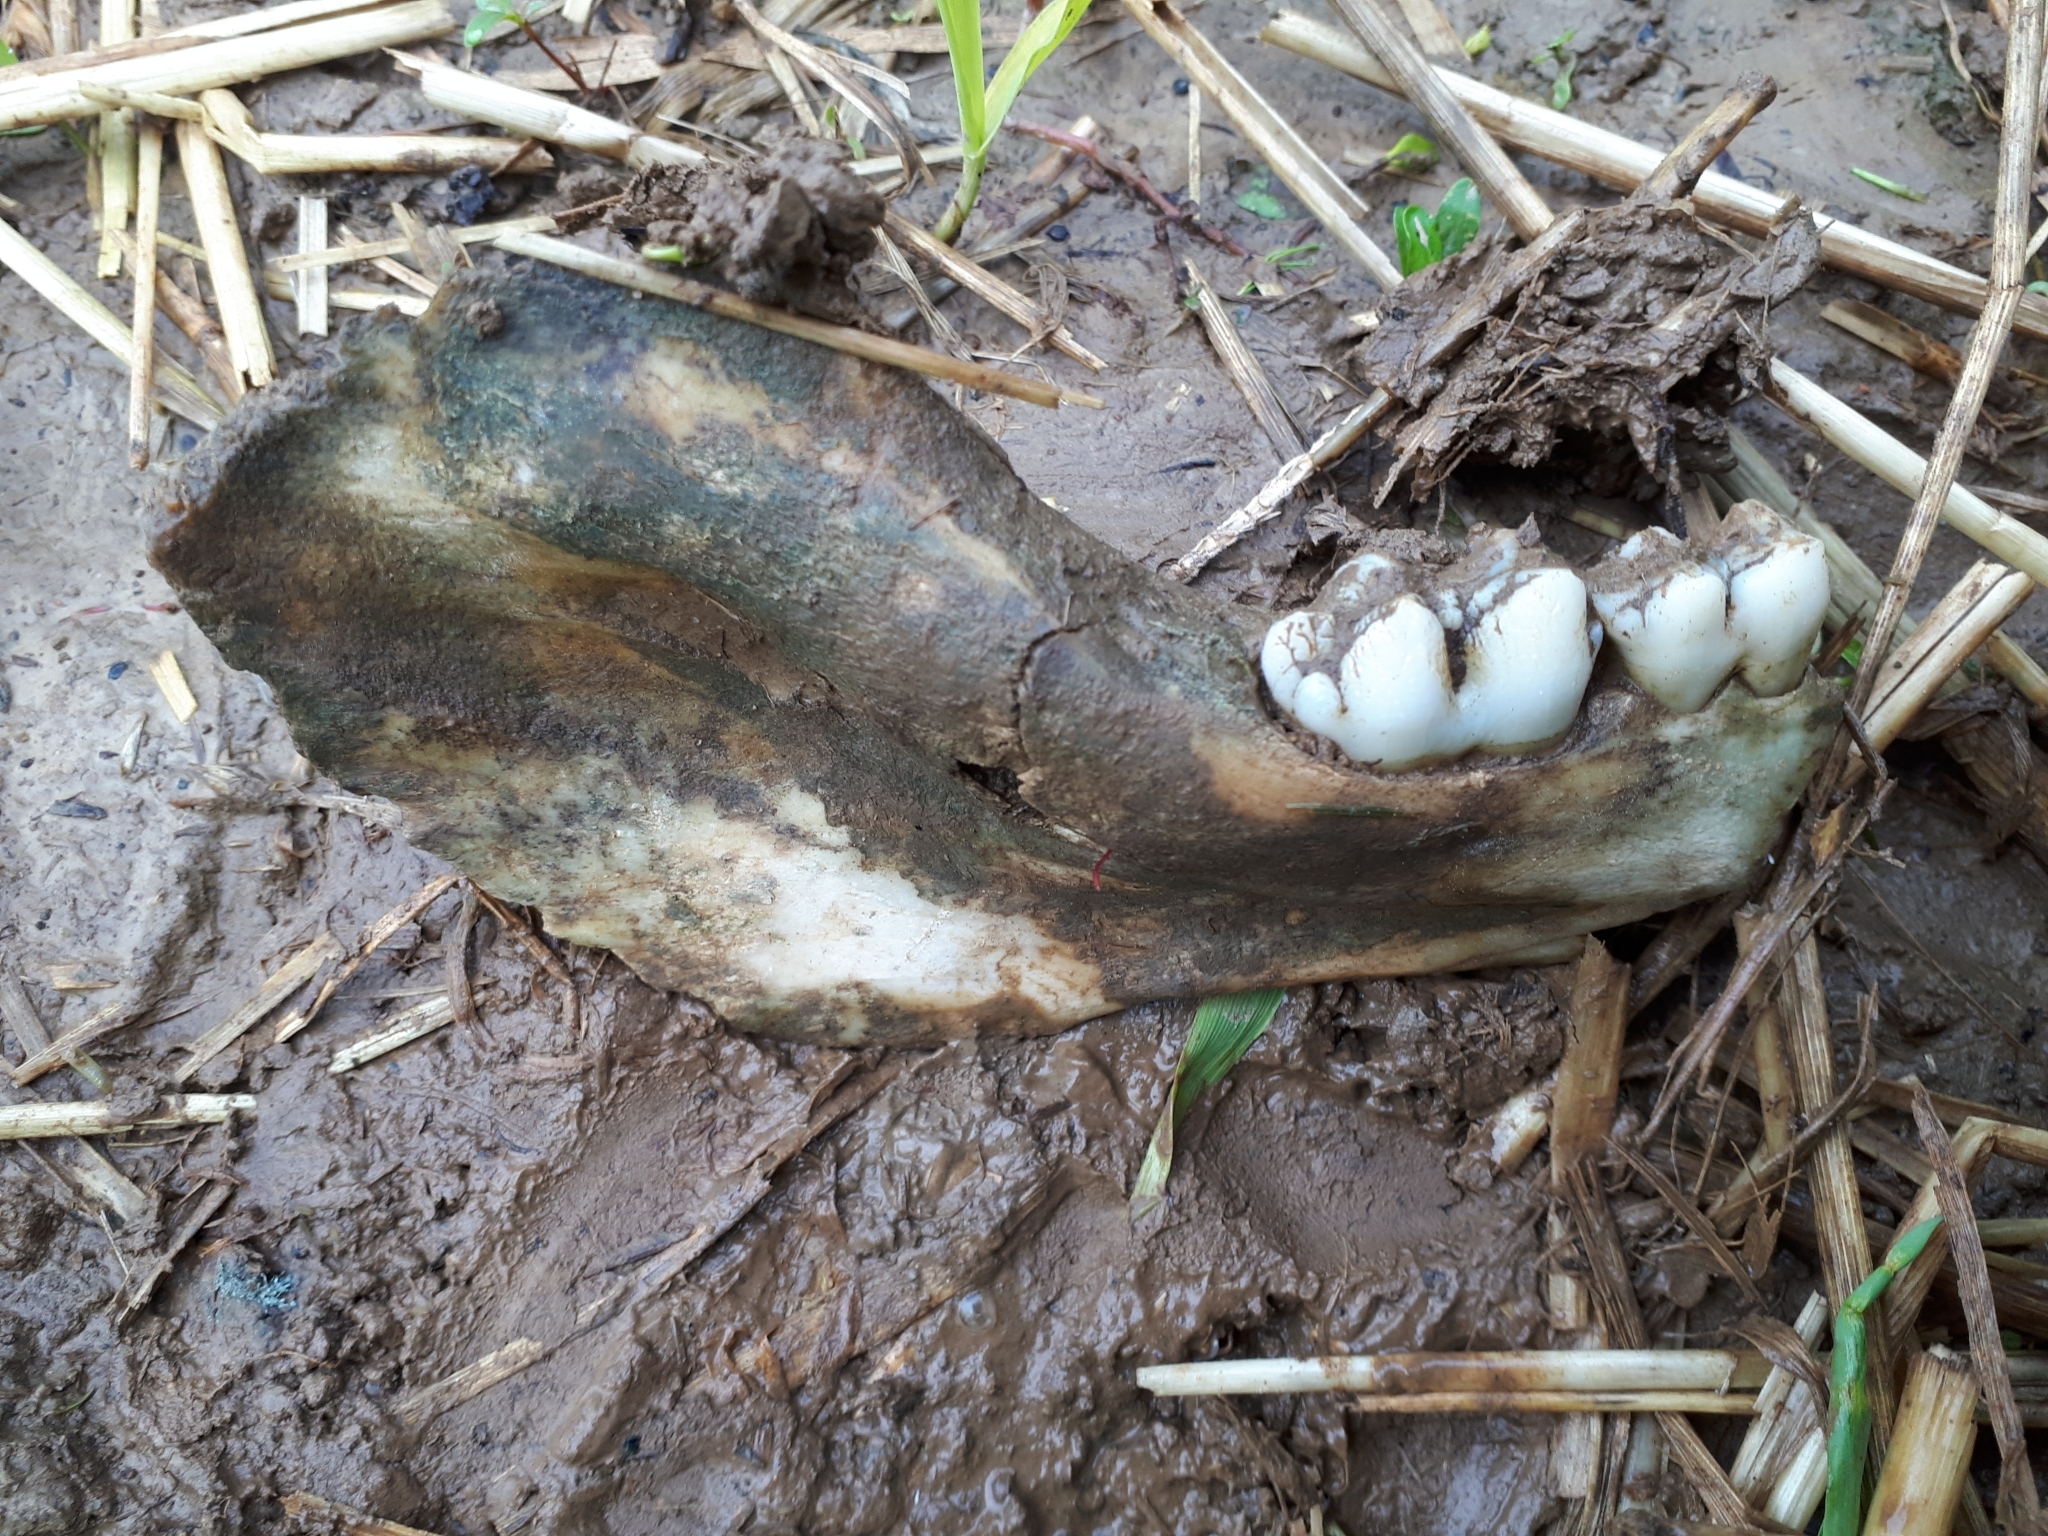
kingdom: Animalia
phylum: Chordata
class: Mammalia
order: Artiodactyla
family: Suidae
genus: Sus
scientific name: Sus scrofa
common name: Wild boar
